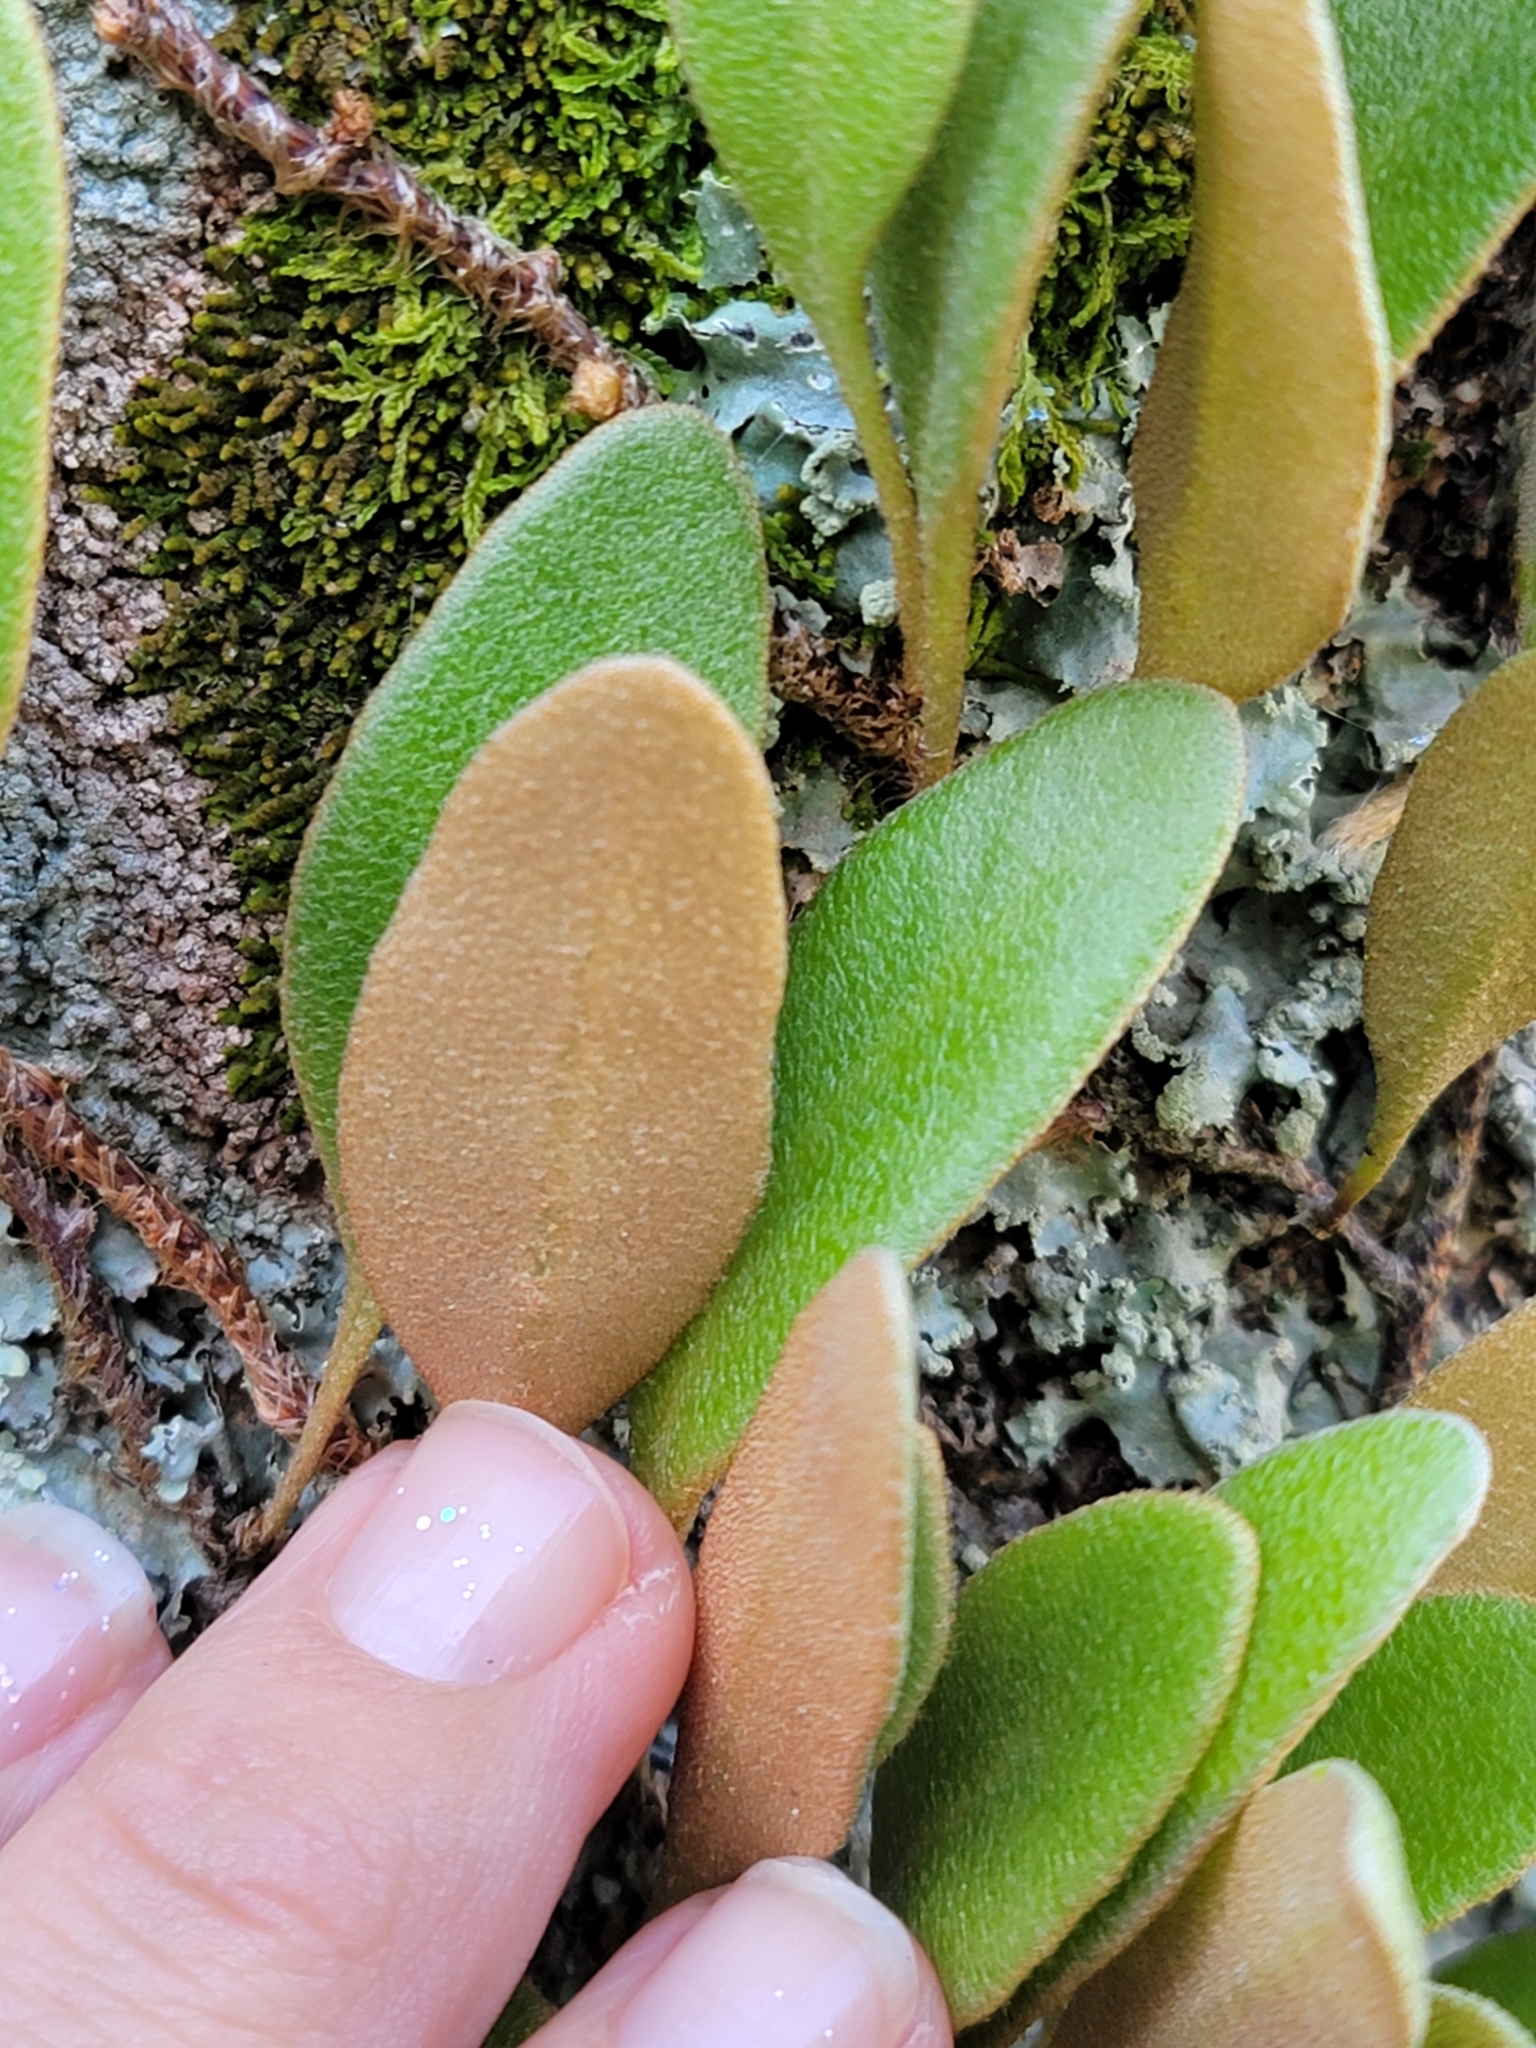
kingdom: Plantae
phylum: Tracheophyta
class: Polypodiopsida
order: Polypodiales
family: Polypodiaceae
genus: Pyrrosia
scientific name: Pyrrosia eleagnifolia
